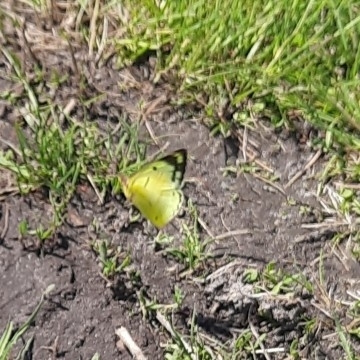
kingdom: Animalia
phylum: Arthropoda
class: Insecta
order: Lepidoptera
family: Pieridae
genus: Colias
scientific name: Colias hyale
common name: Pale clouded yellow
